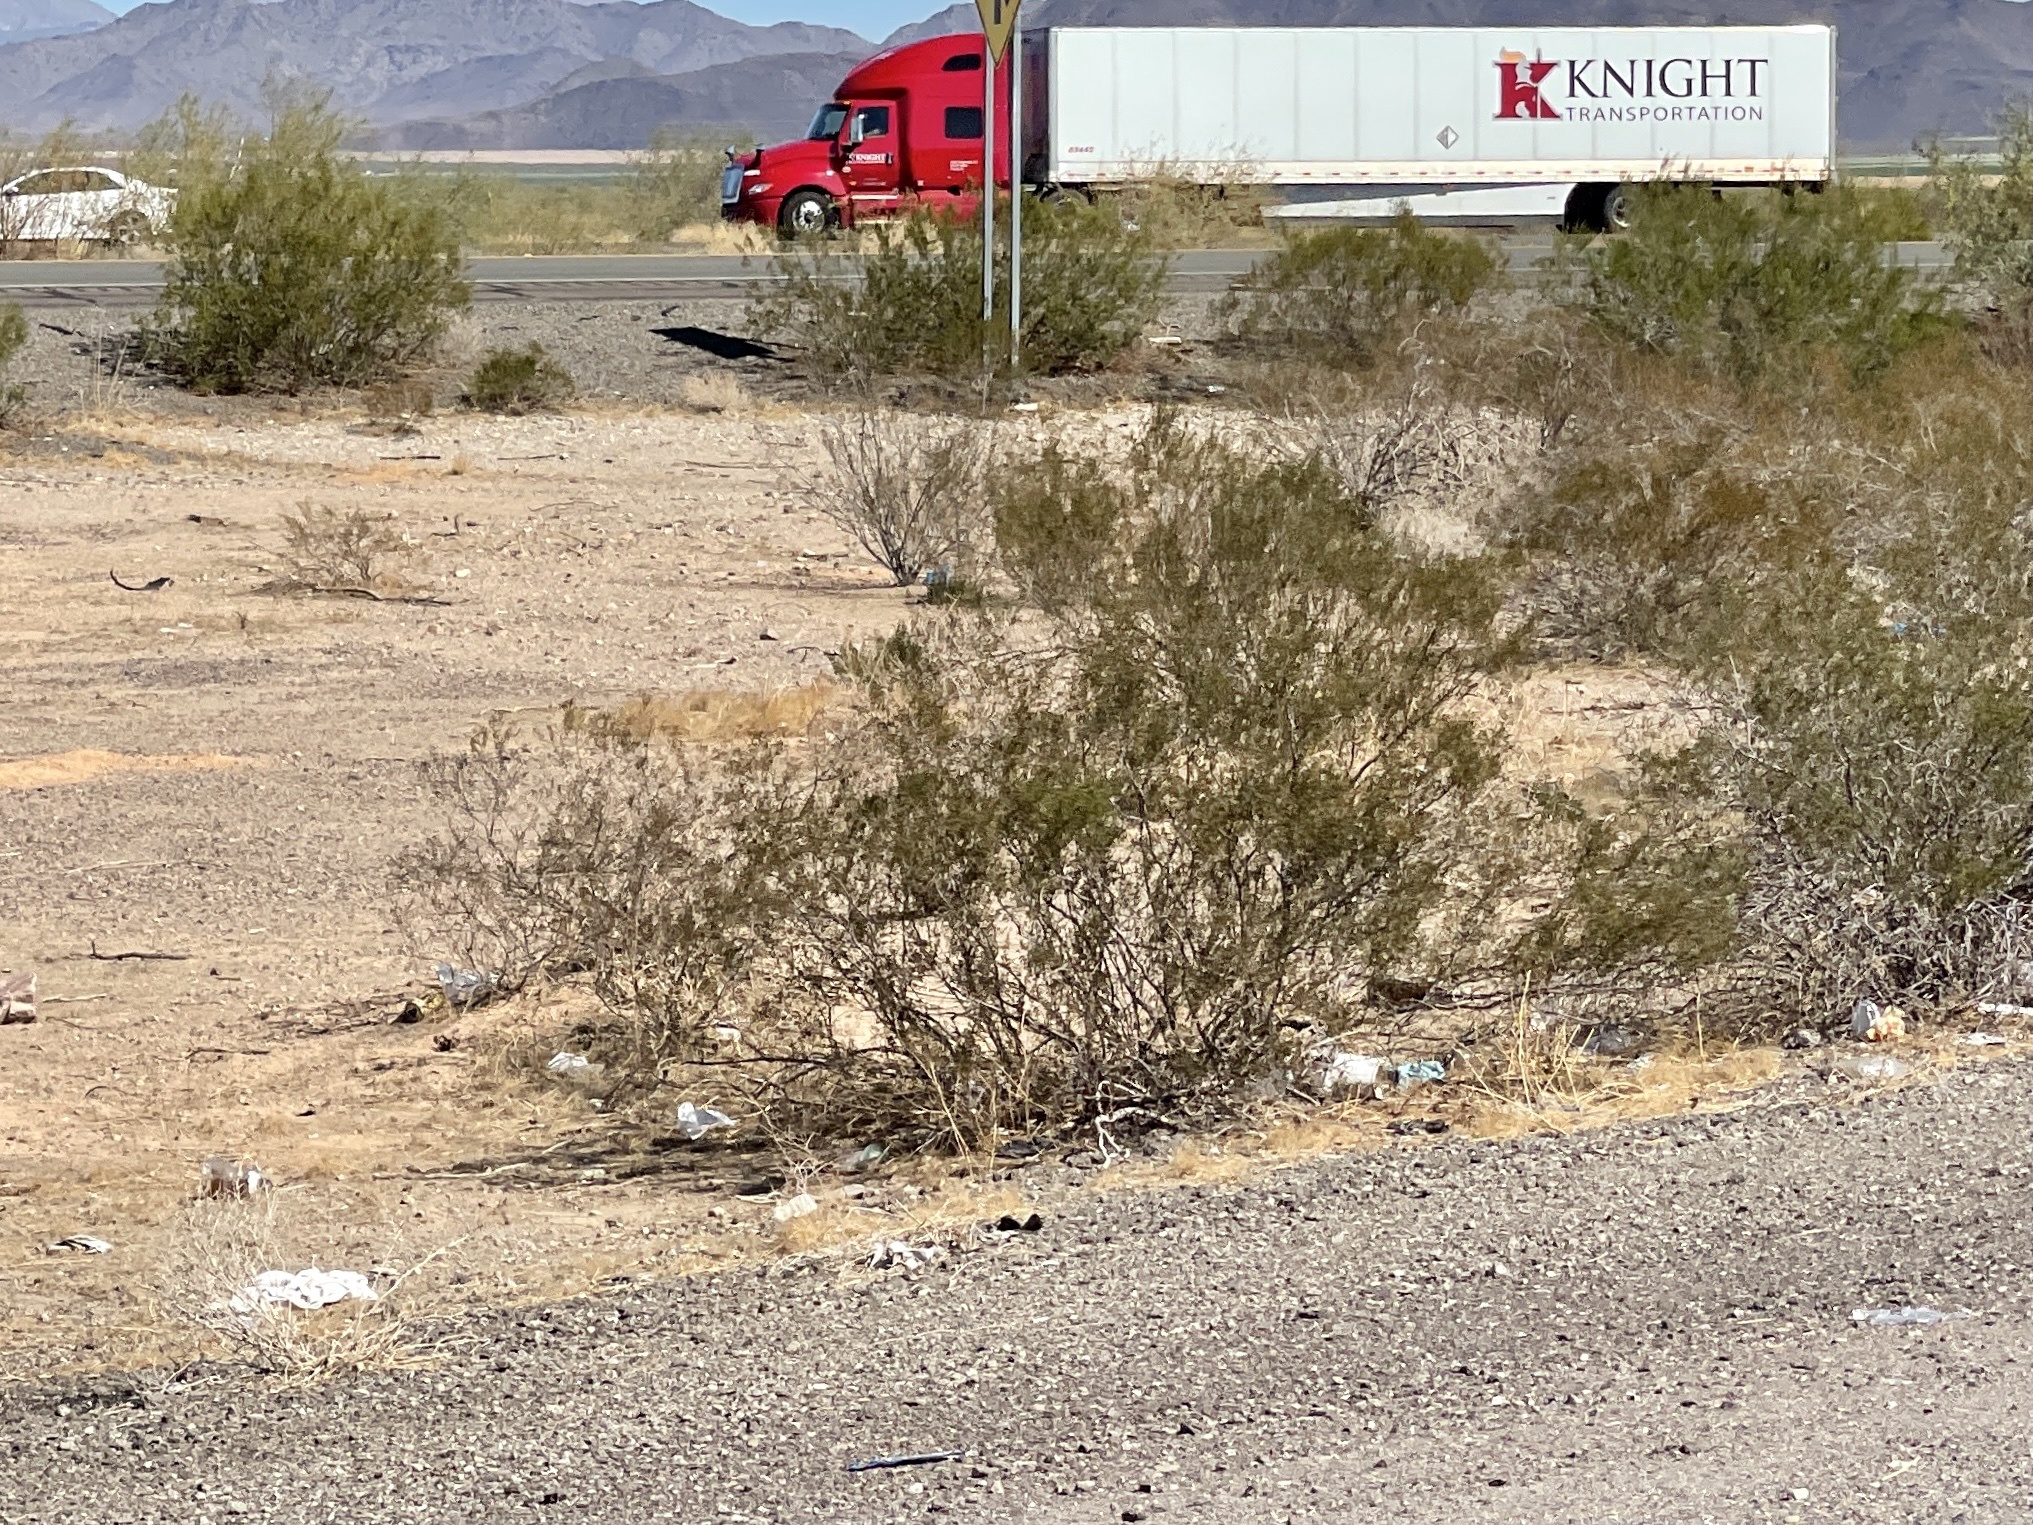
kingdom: Plantae
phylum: Tracheophyta
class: Magnoliopsida
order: Zygophyllales
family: Zygophyllaceae
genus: Larrea
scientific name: Larrea tridentata
